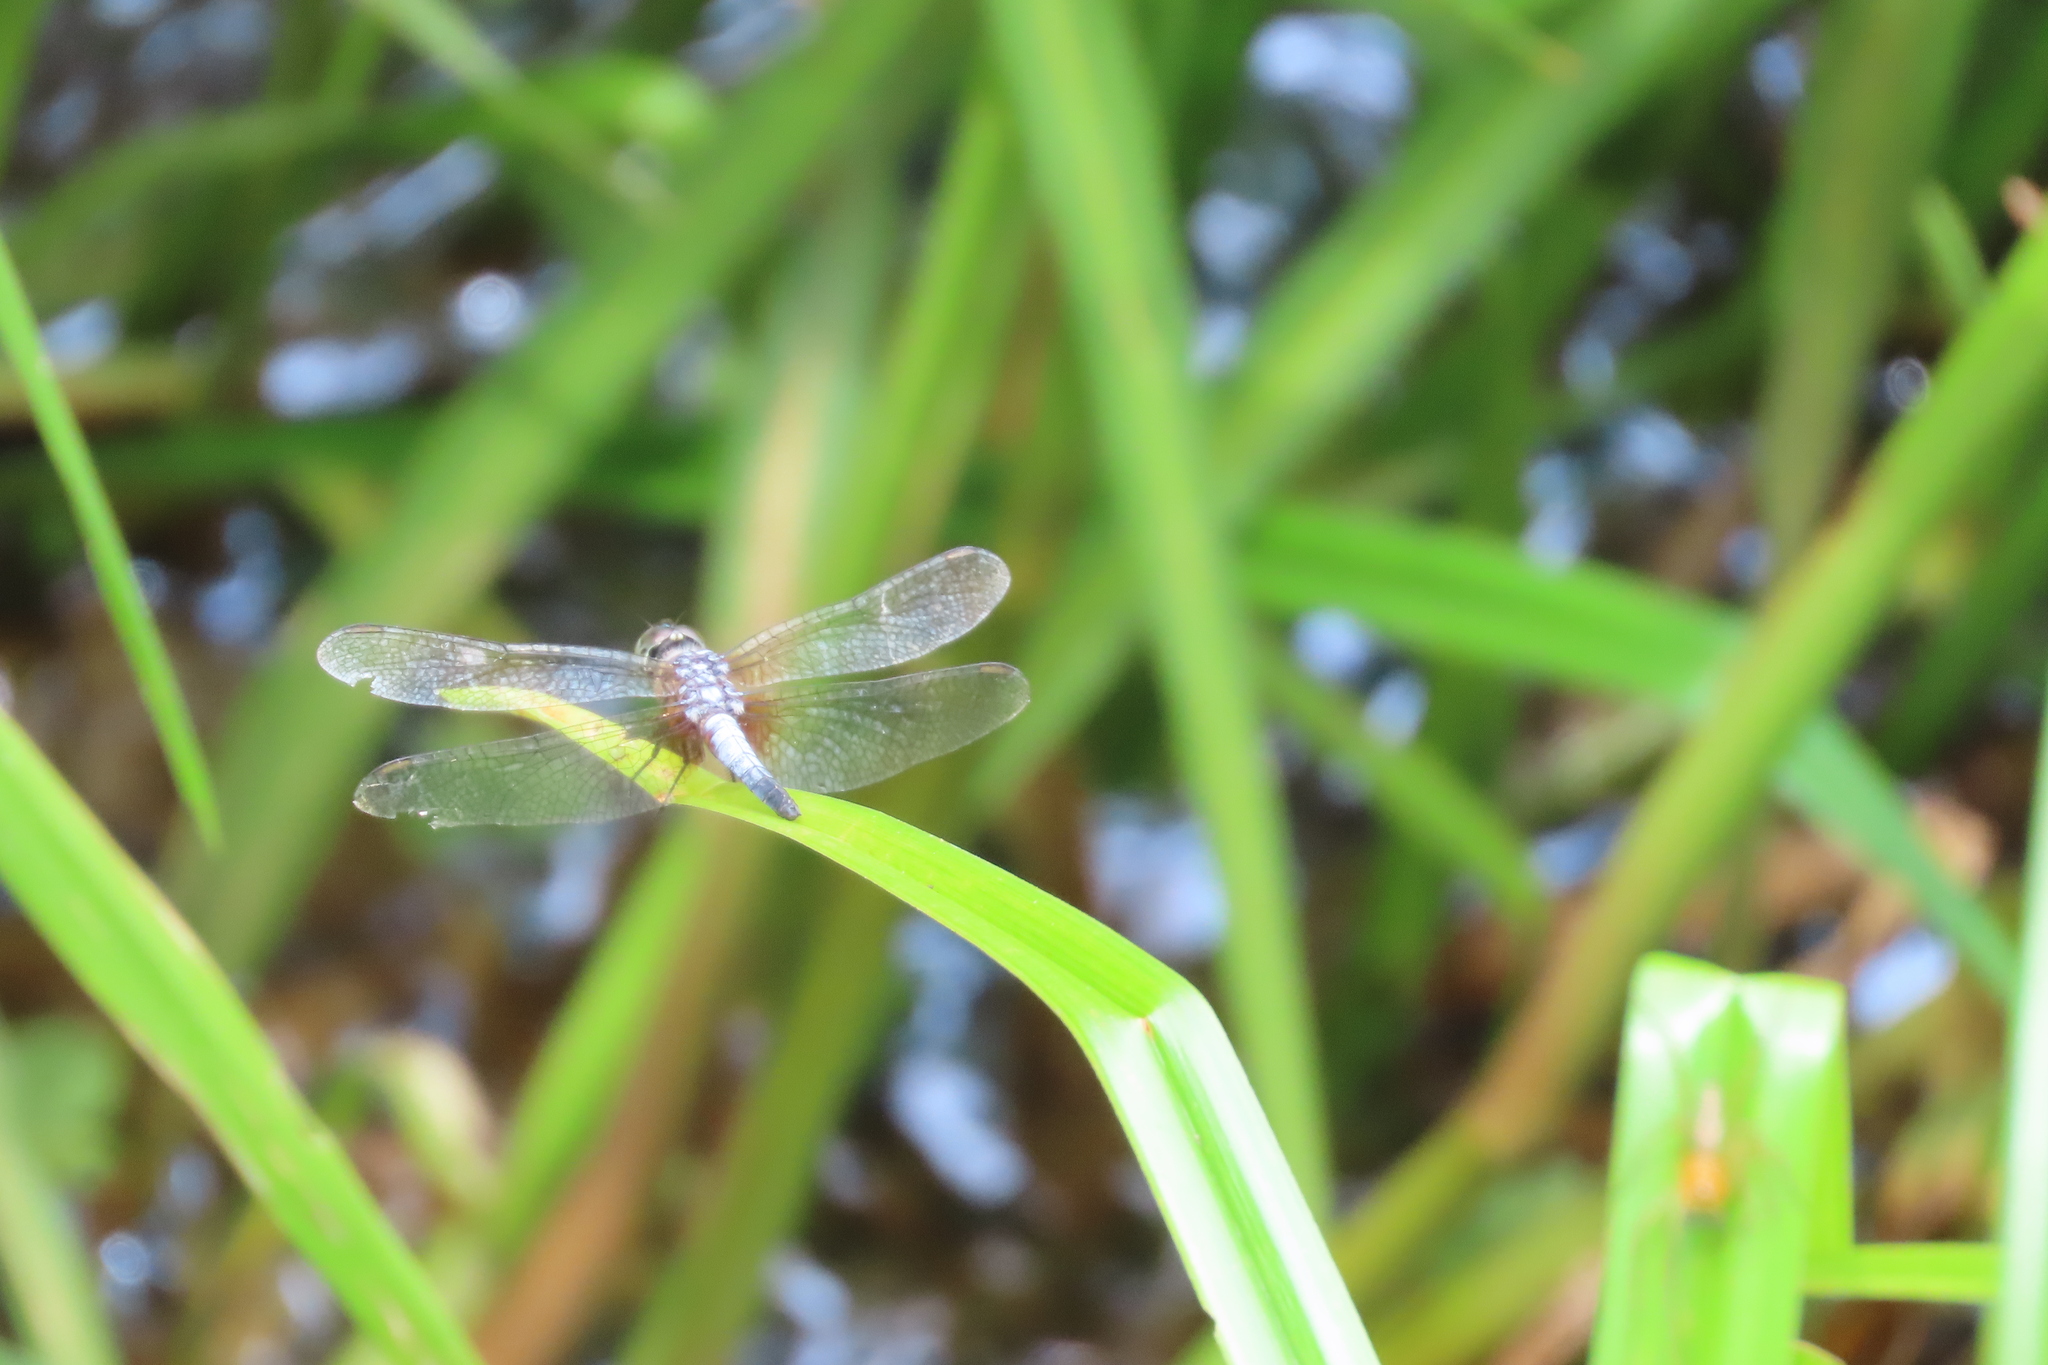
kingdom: Animalia
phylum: Arthropoda
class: Insecta
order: Odonata
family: Libellulidae
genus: Brachydiplax
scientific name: Brachydiplax chalybea
